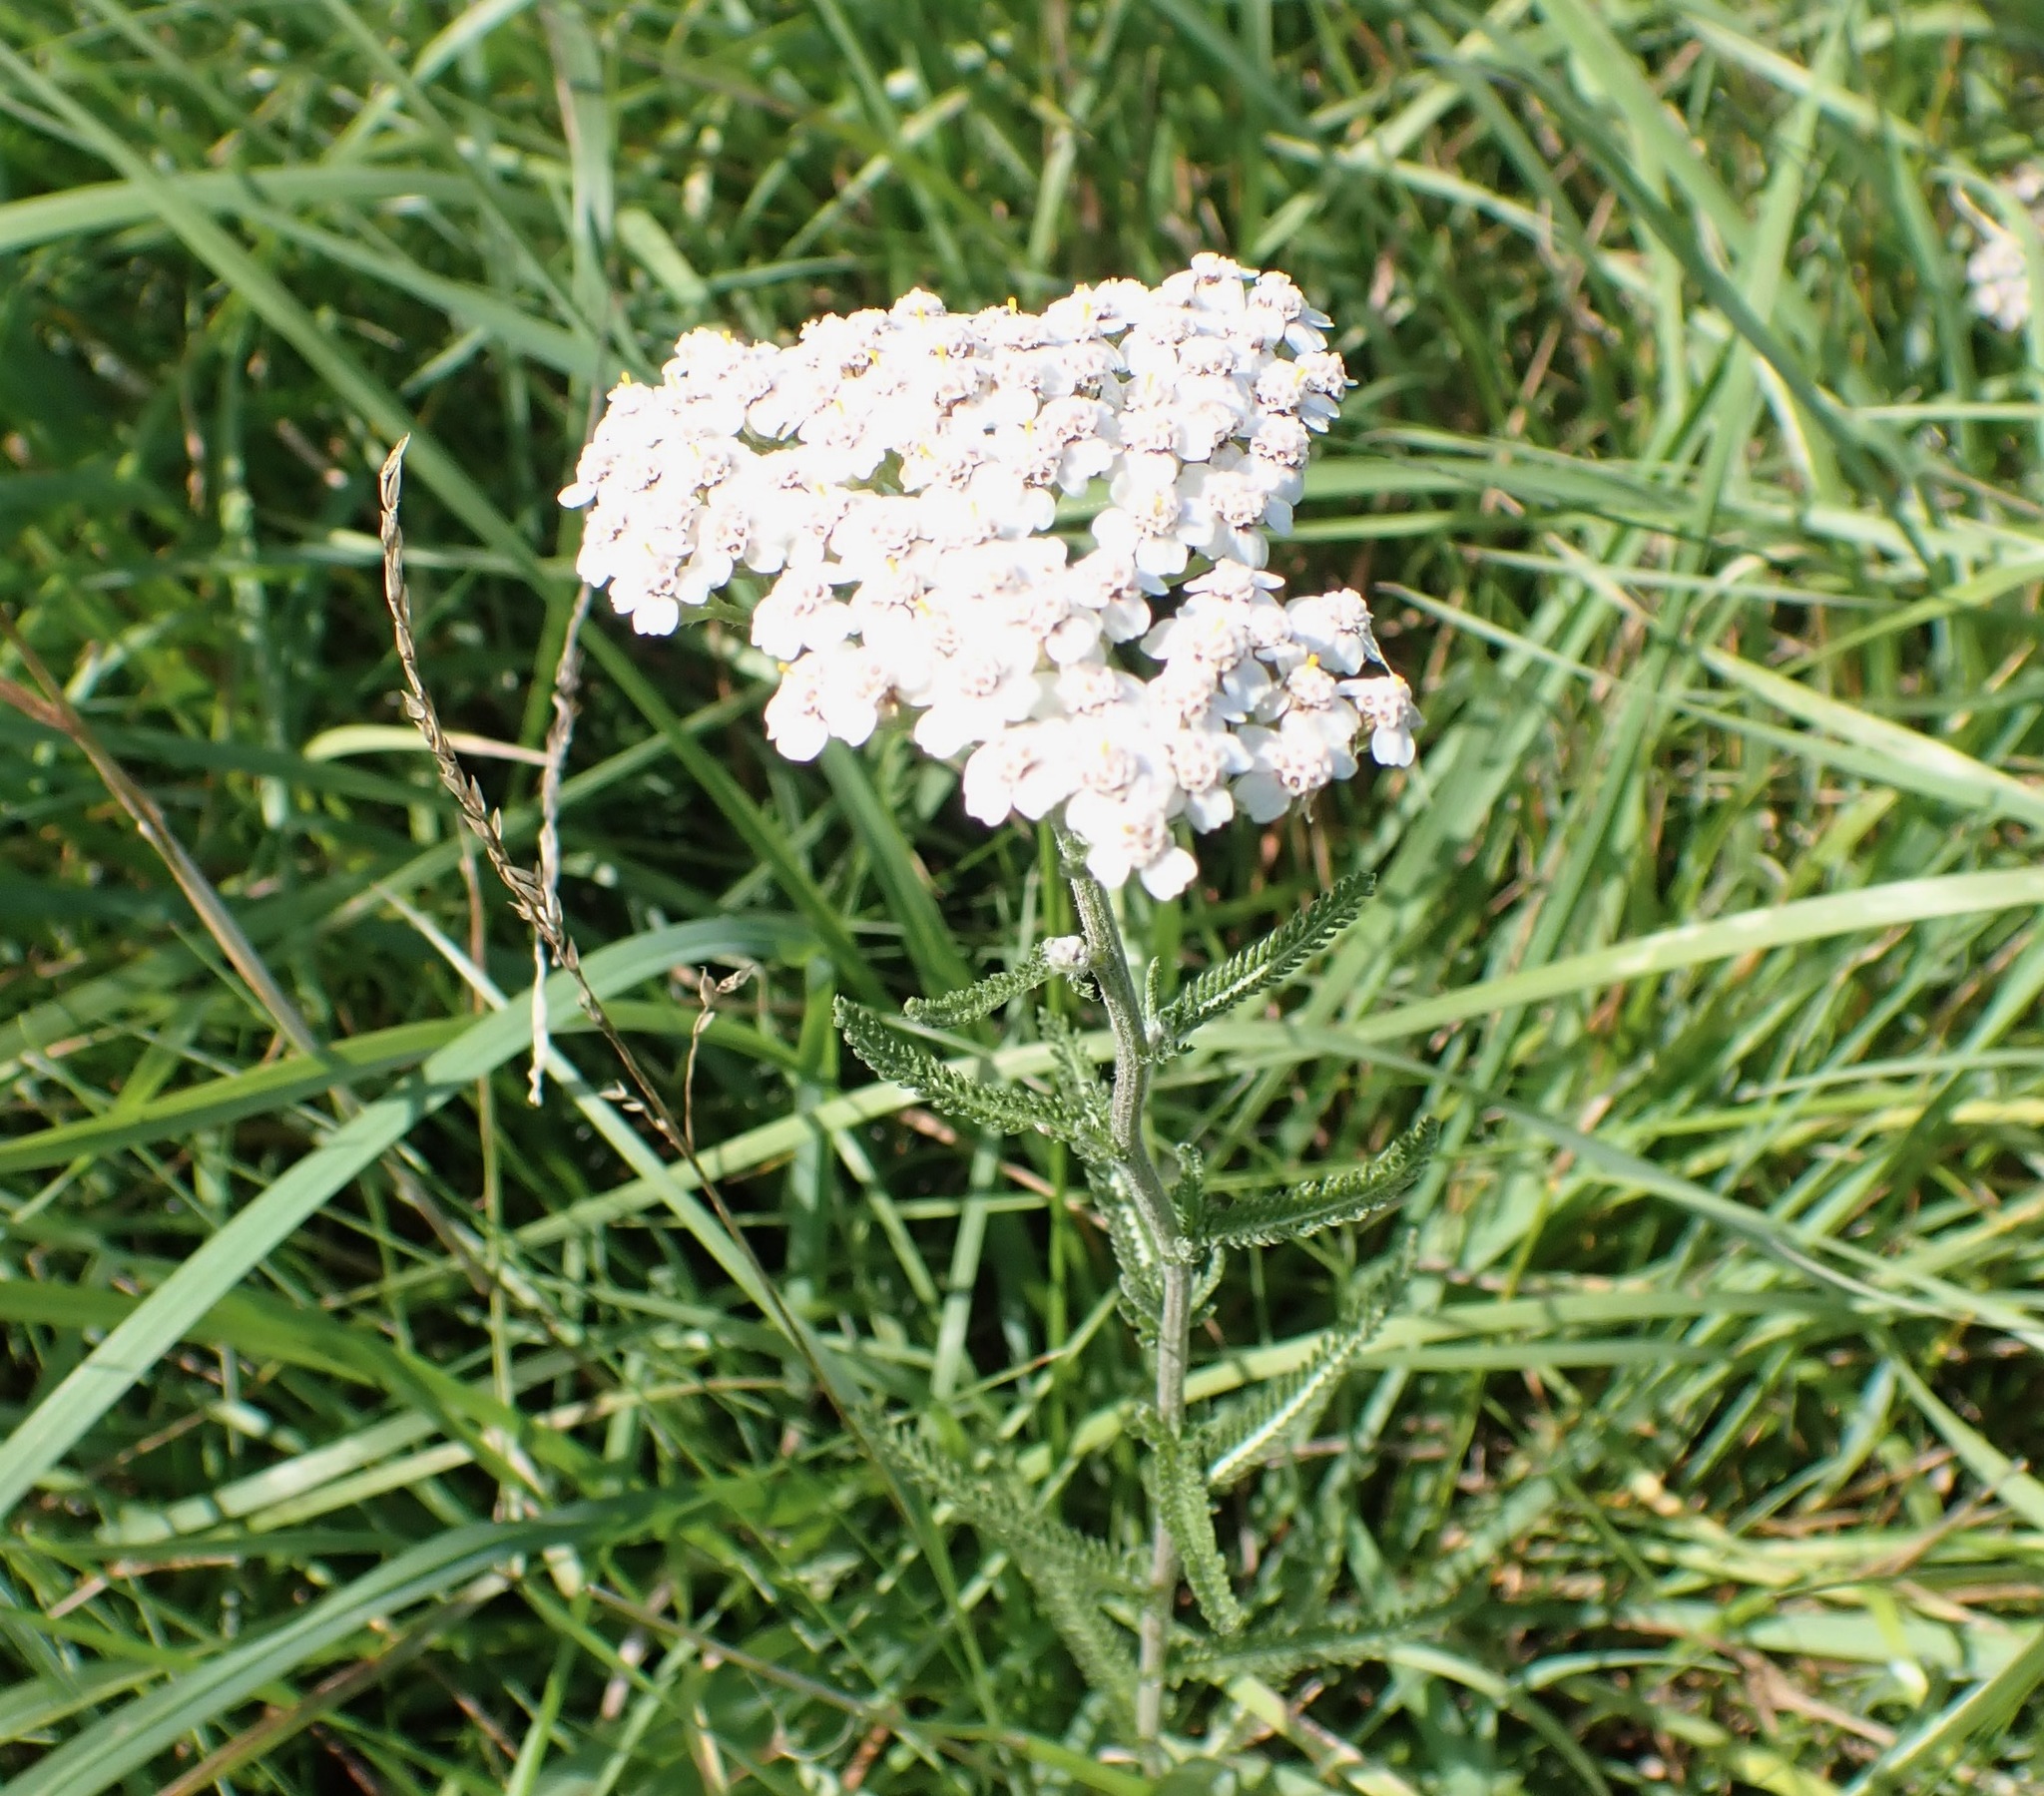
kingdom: Plantae
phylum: Tracheophyta
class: Magnoliopsida
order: Asterales
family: Asteraceae
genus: Achillea
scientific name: Achillea millefolium
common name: Yarrow
